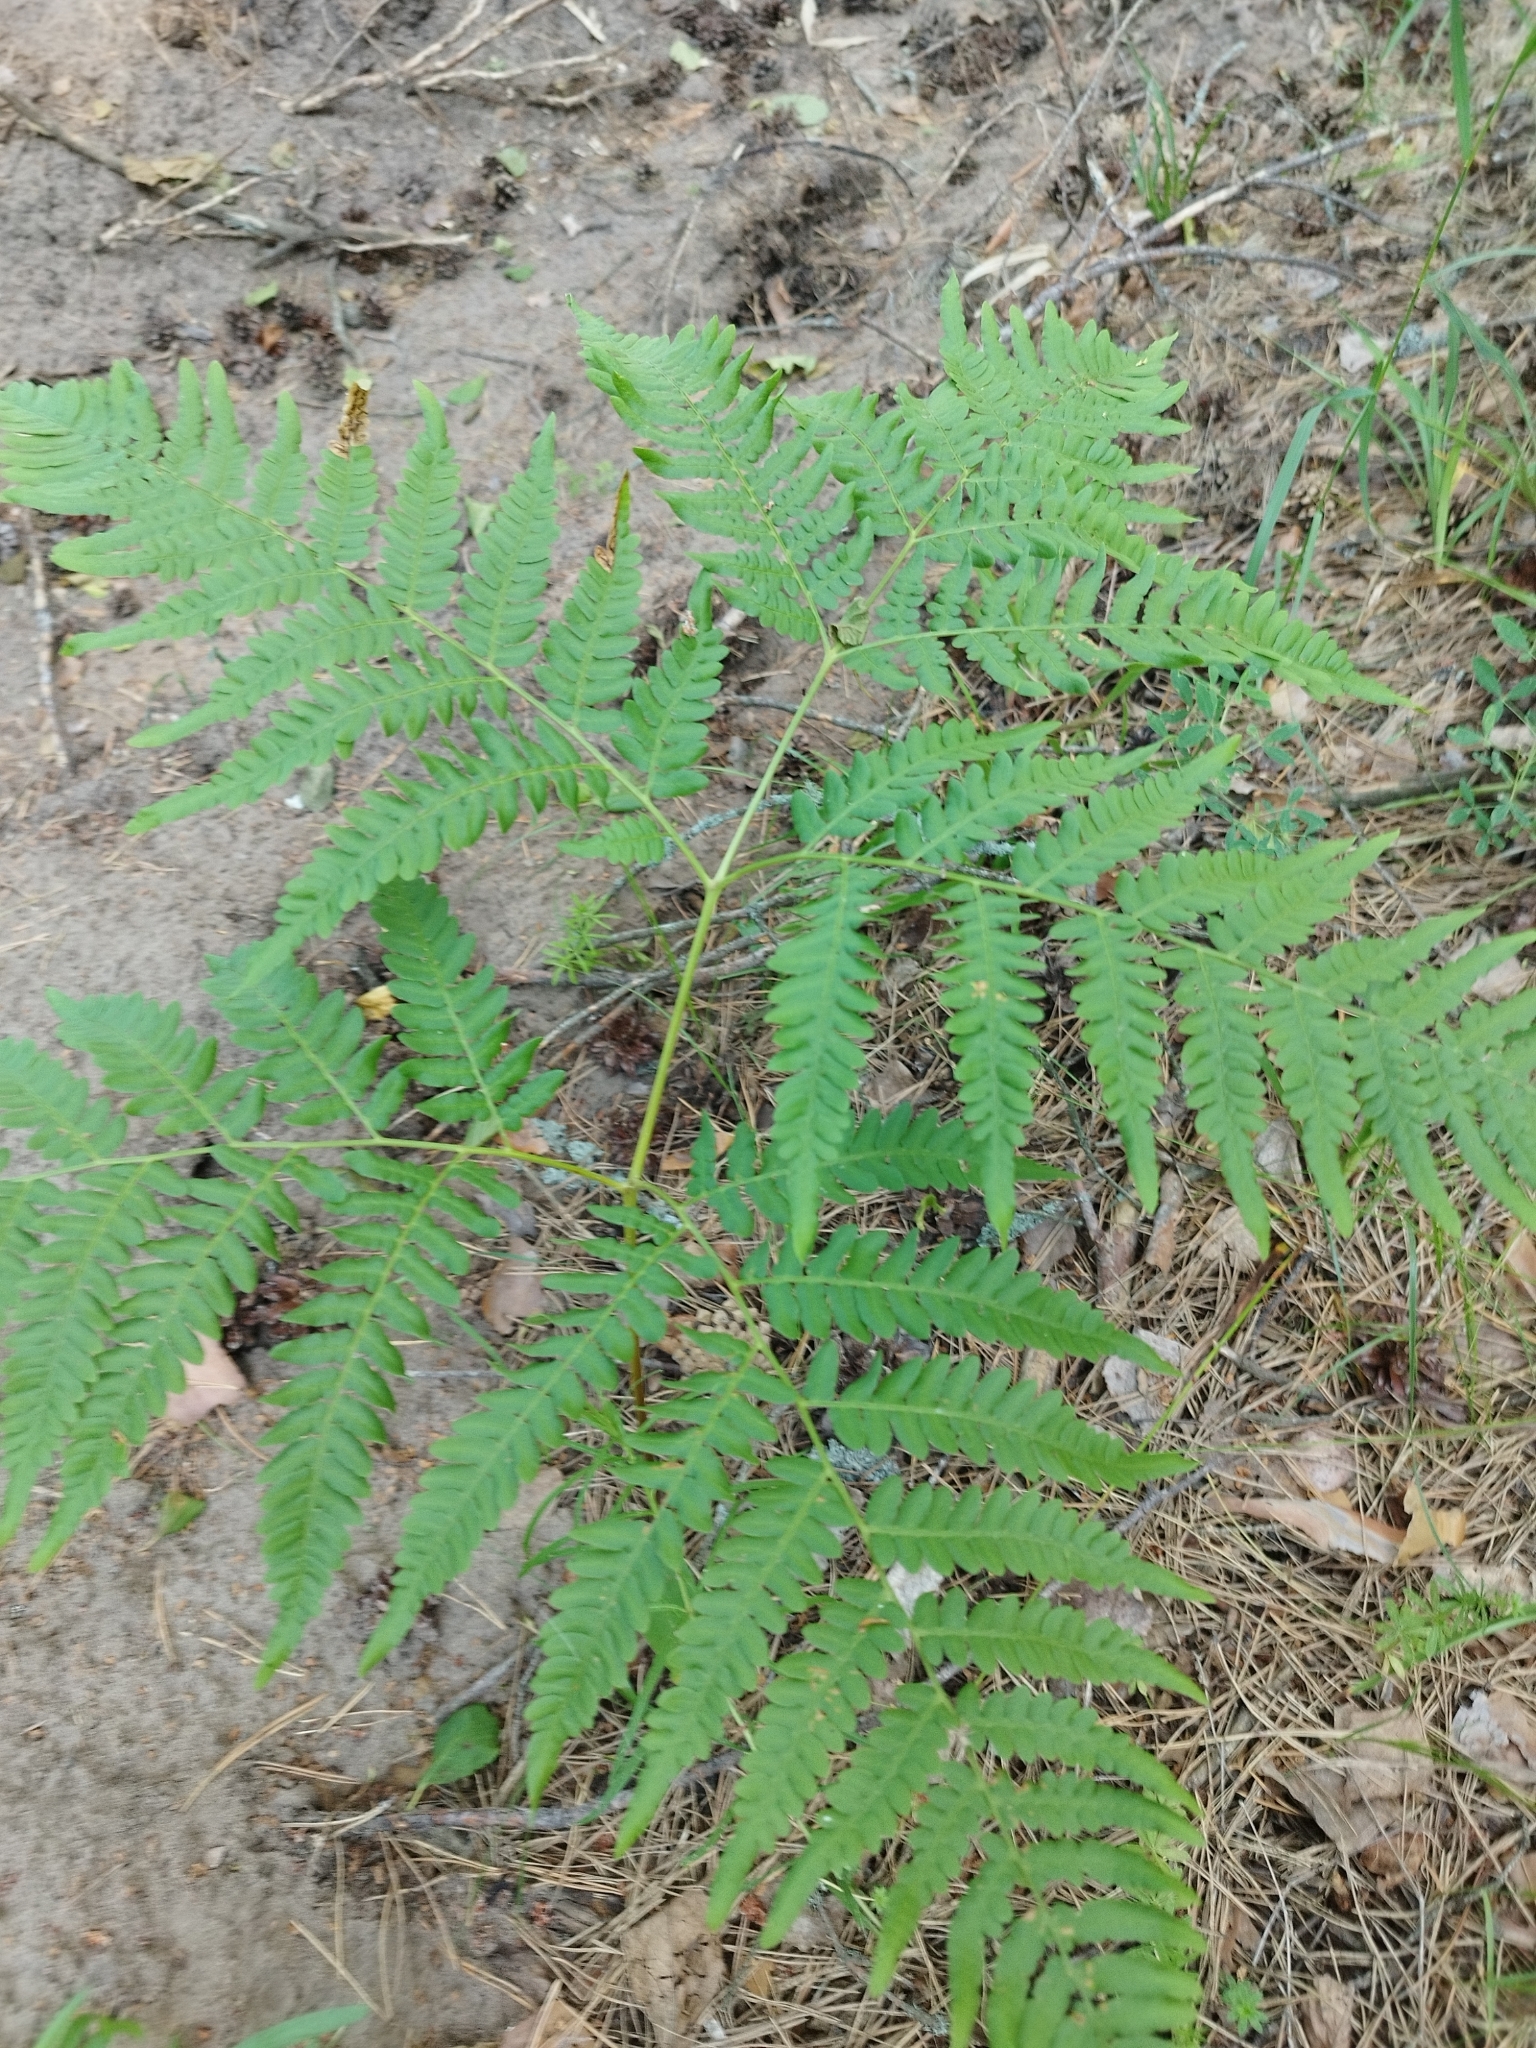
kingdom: Plantae
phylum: Tracheophyta
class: Polypodiopsida
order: Polypodiales
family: Dennstaedtiaceae
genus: Pteridium
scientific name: Pteridium aquilinum
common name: Bracken
